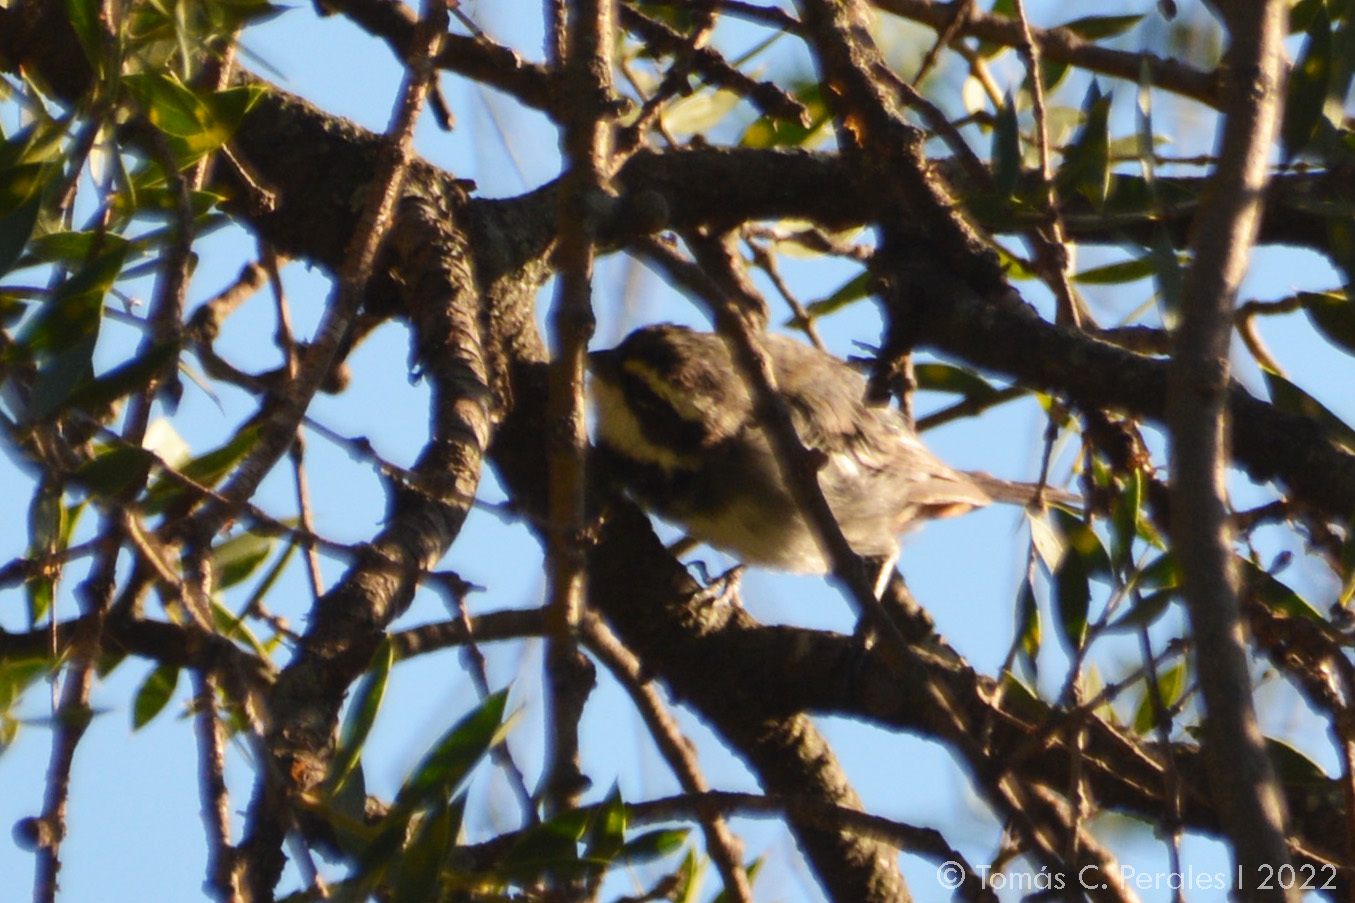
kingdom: Animalia
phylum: Chordata
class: Aves
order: Passeriformes
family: Thraupidae
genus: Microspingus
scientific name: Microspingus torquatus
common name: Ringed warbling-finch
